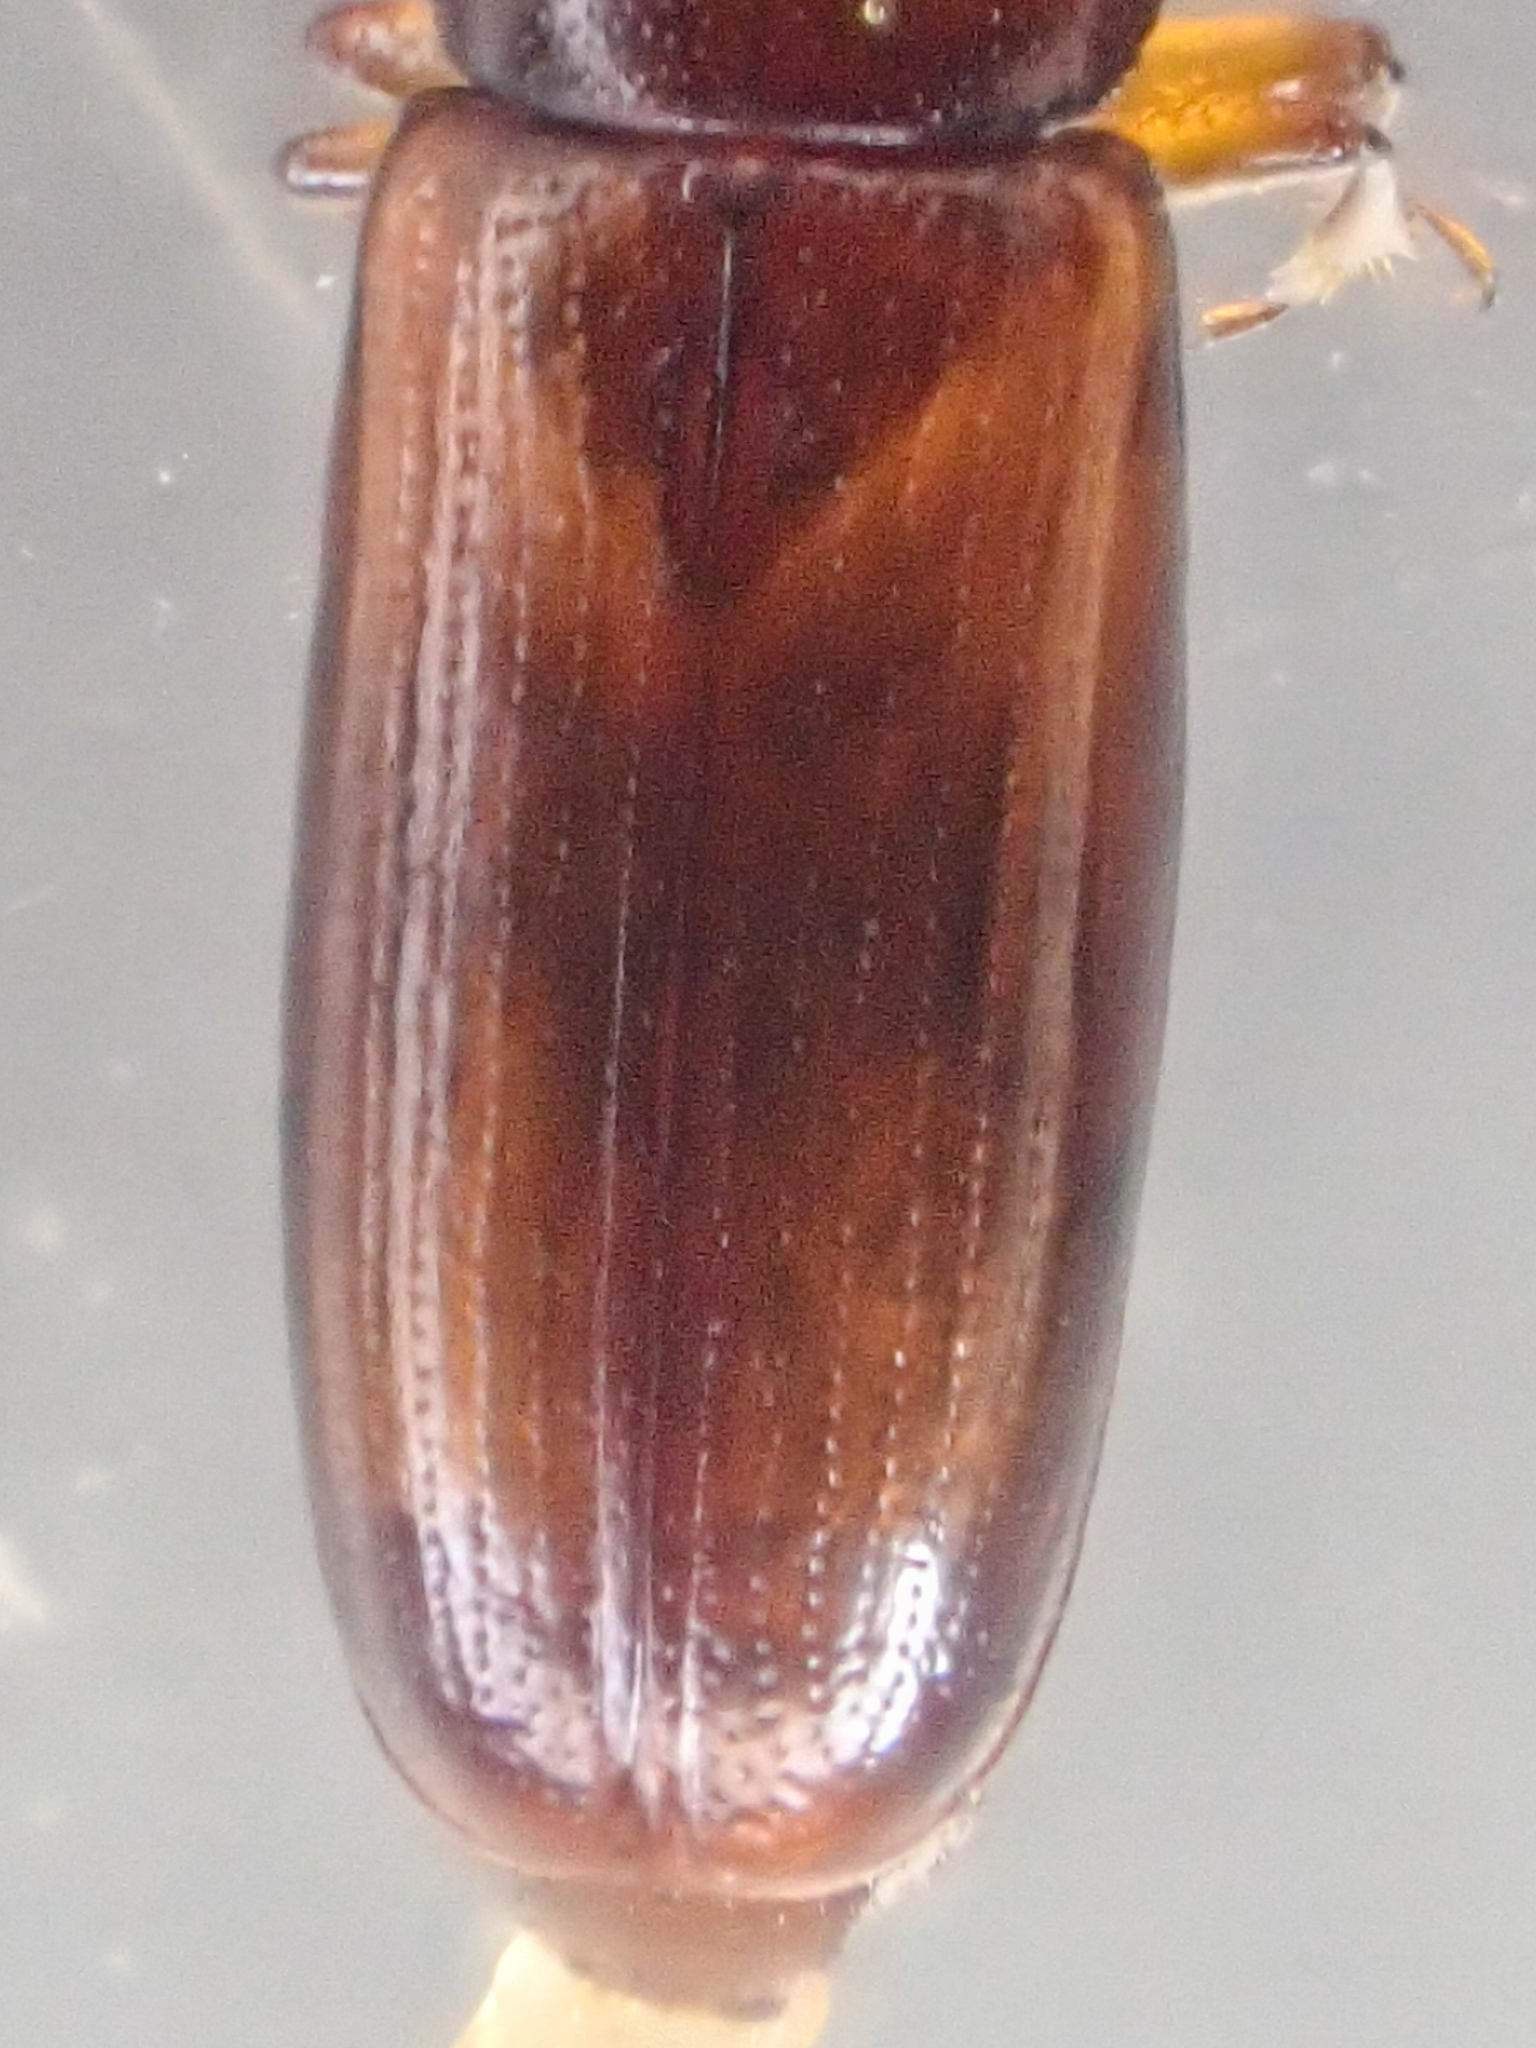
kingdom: Animalia
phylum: Arthropoda
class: Insecta
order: Coleoptera
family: Monotomidae
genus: Rhizophagus
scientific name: Rhizophagus grouvellei
